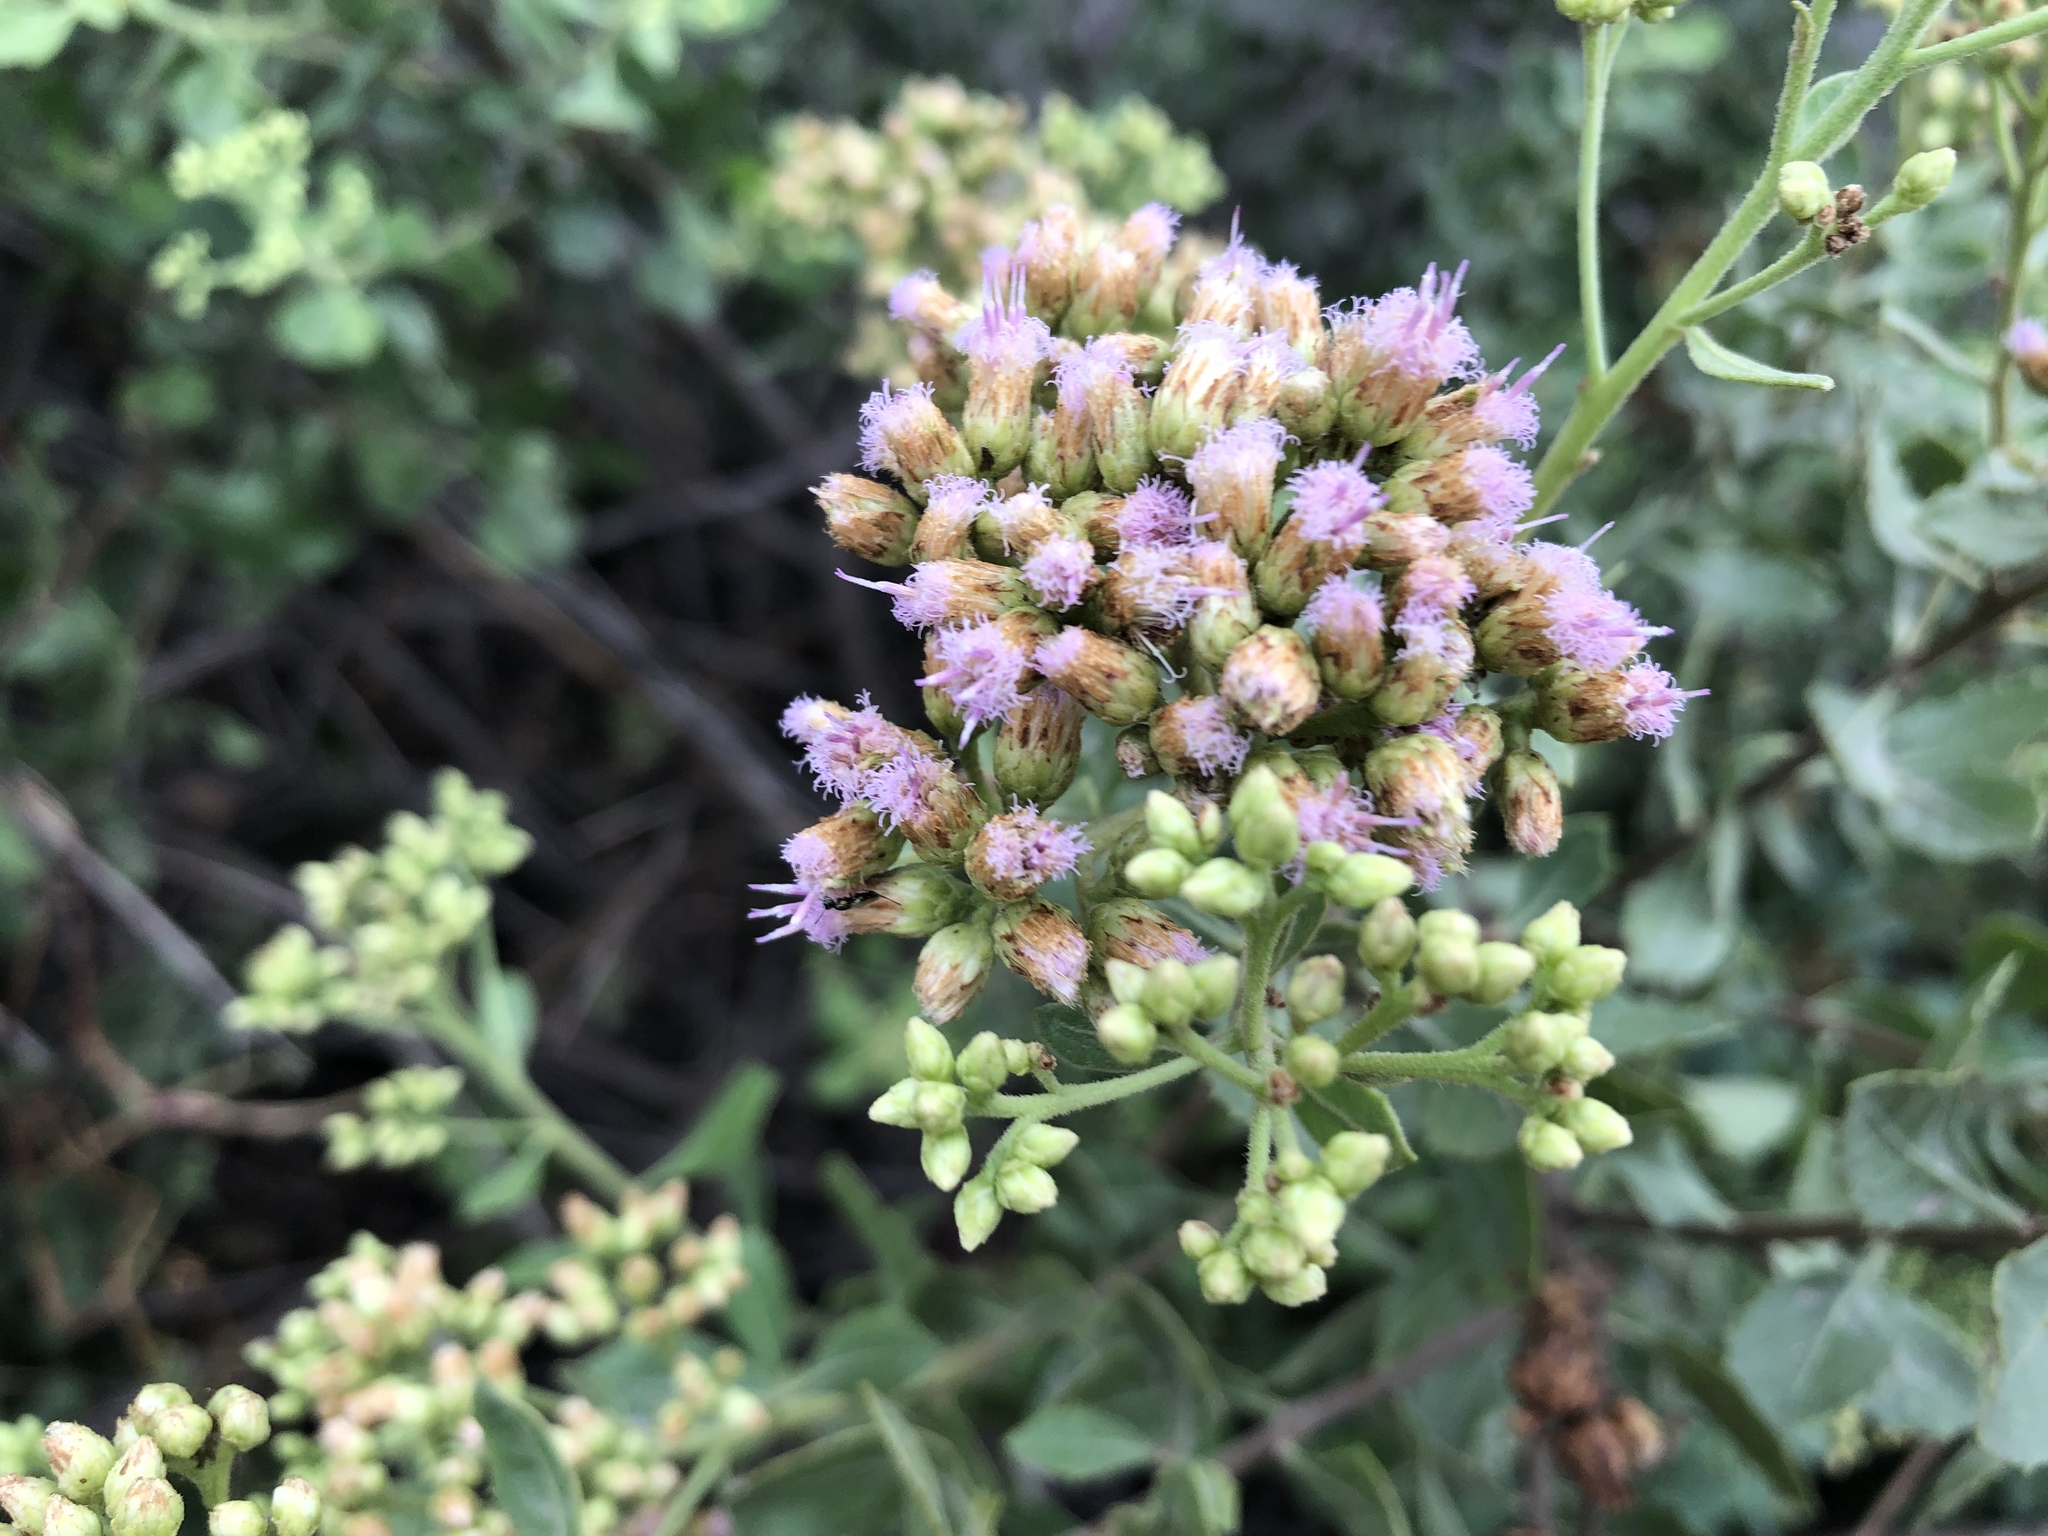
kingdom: Plantae
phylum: Tracheophyta
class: Magnoliopsida
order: Asterales
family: Asteraceae
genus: Pluchea
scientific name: Pluchea indica
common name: Indian fleabane
